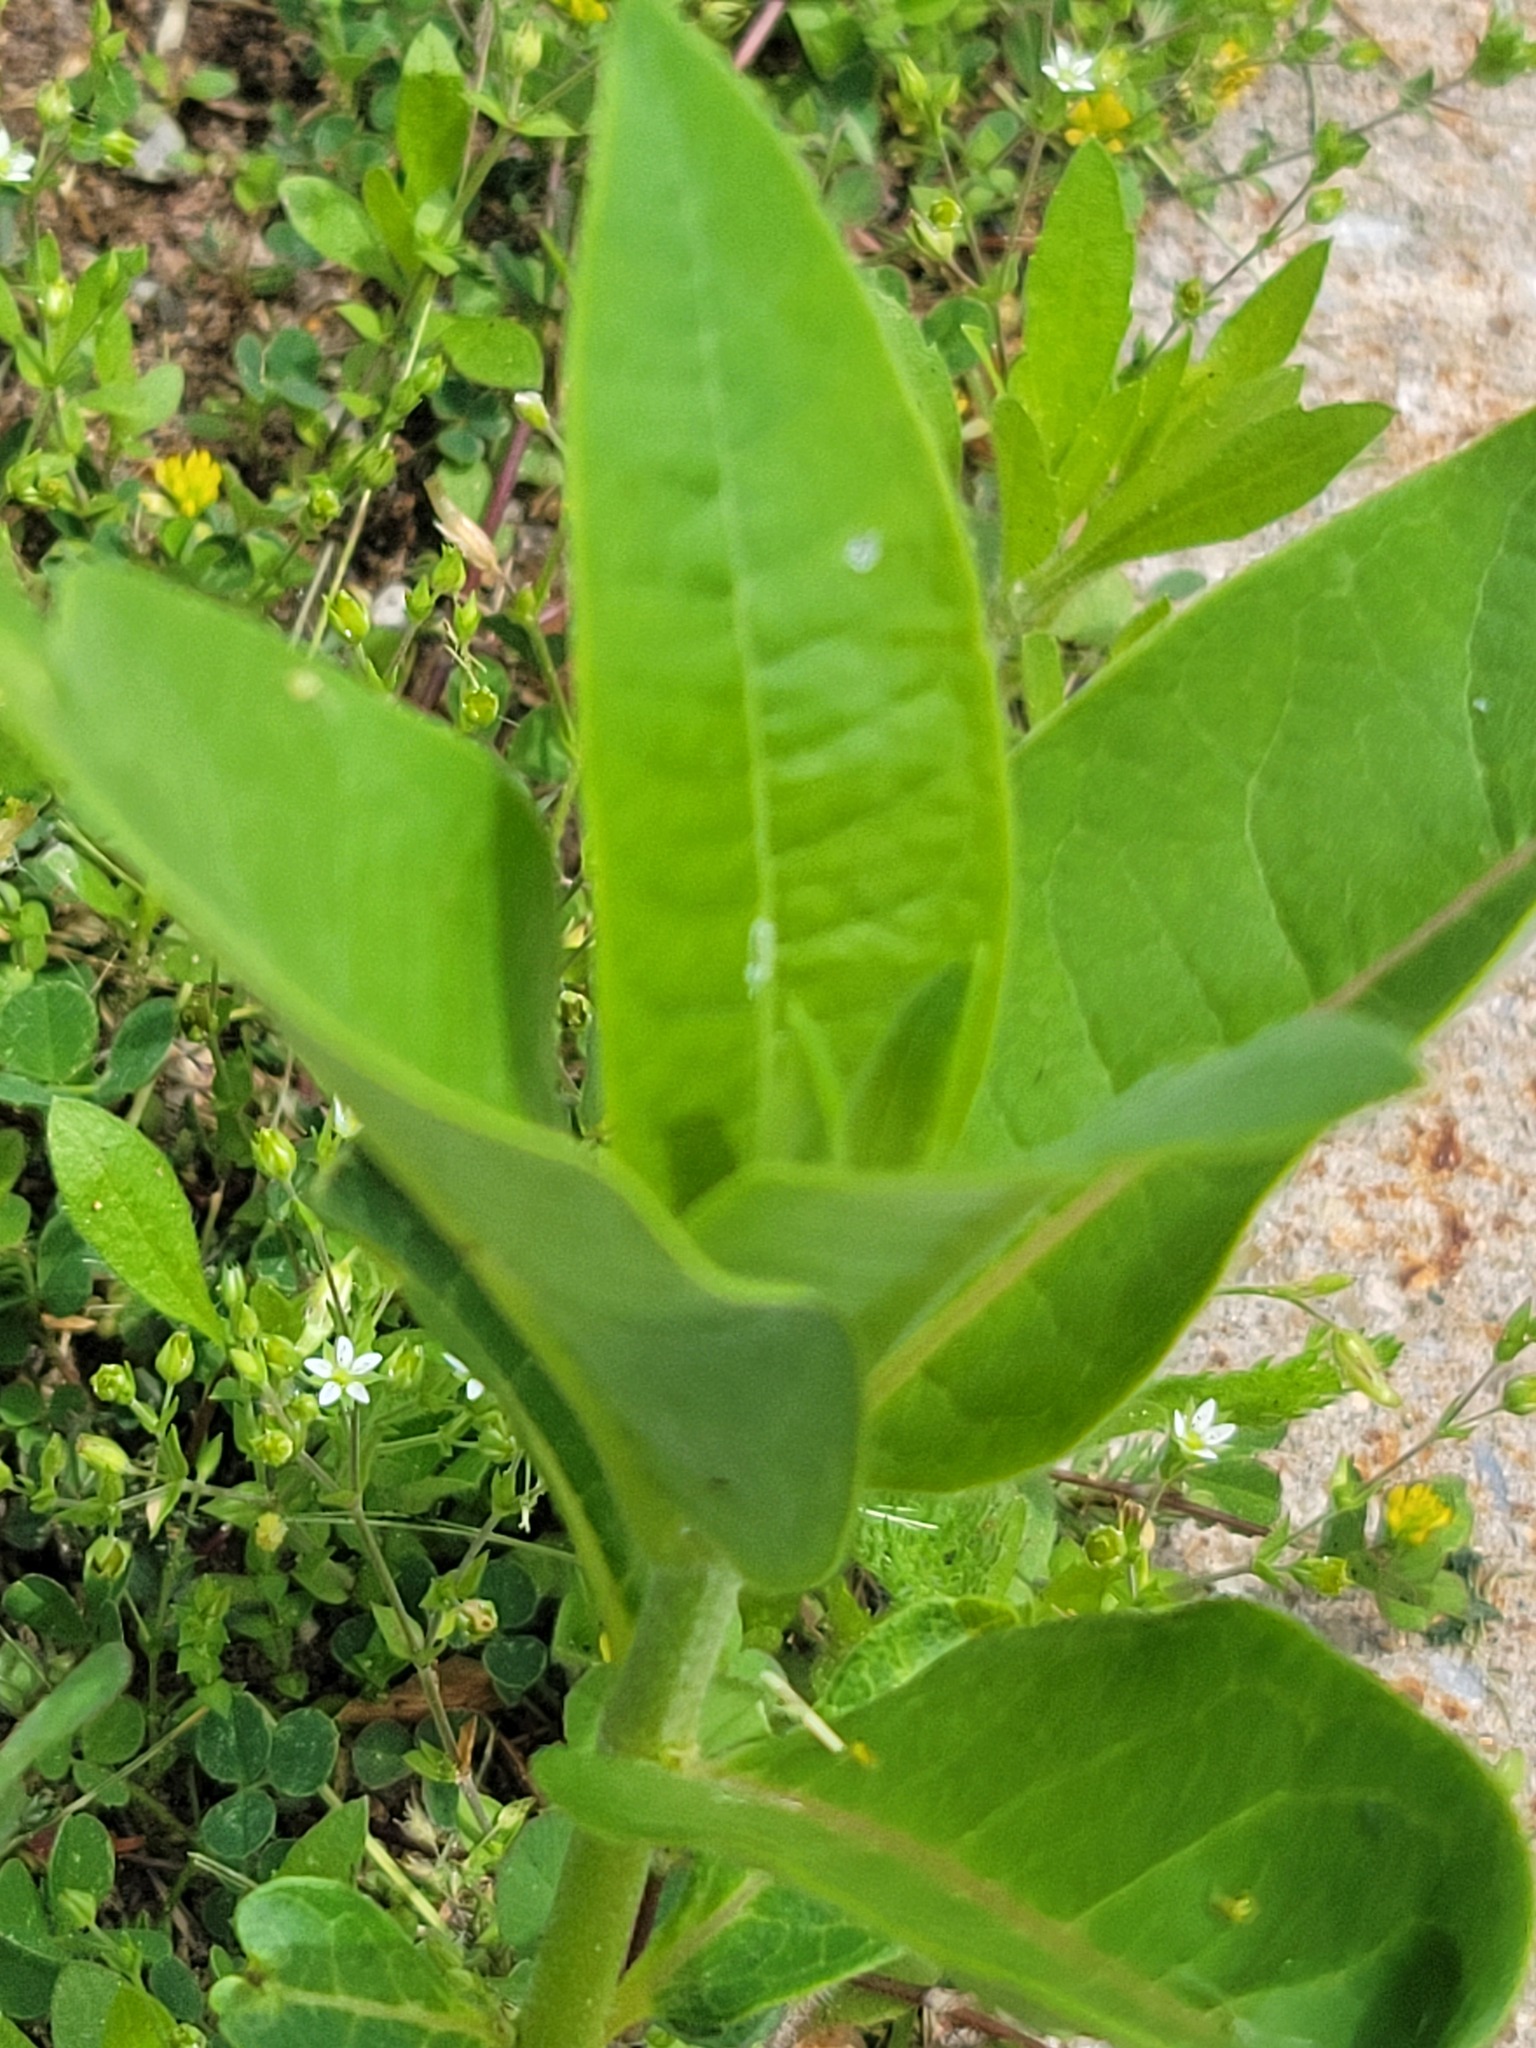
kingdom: Plantae
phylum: Tracheophyta
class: Magnoliopsida
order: Gentianales
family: Apocynaceae
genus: Asclepias
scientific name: Asclepias syriaca
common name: Common milkweed
